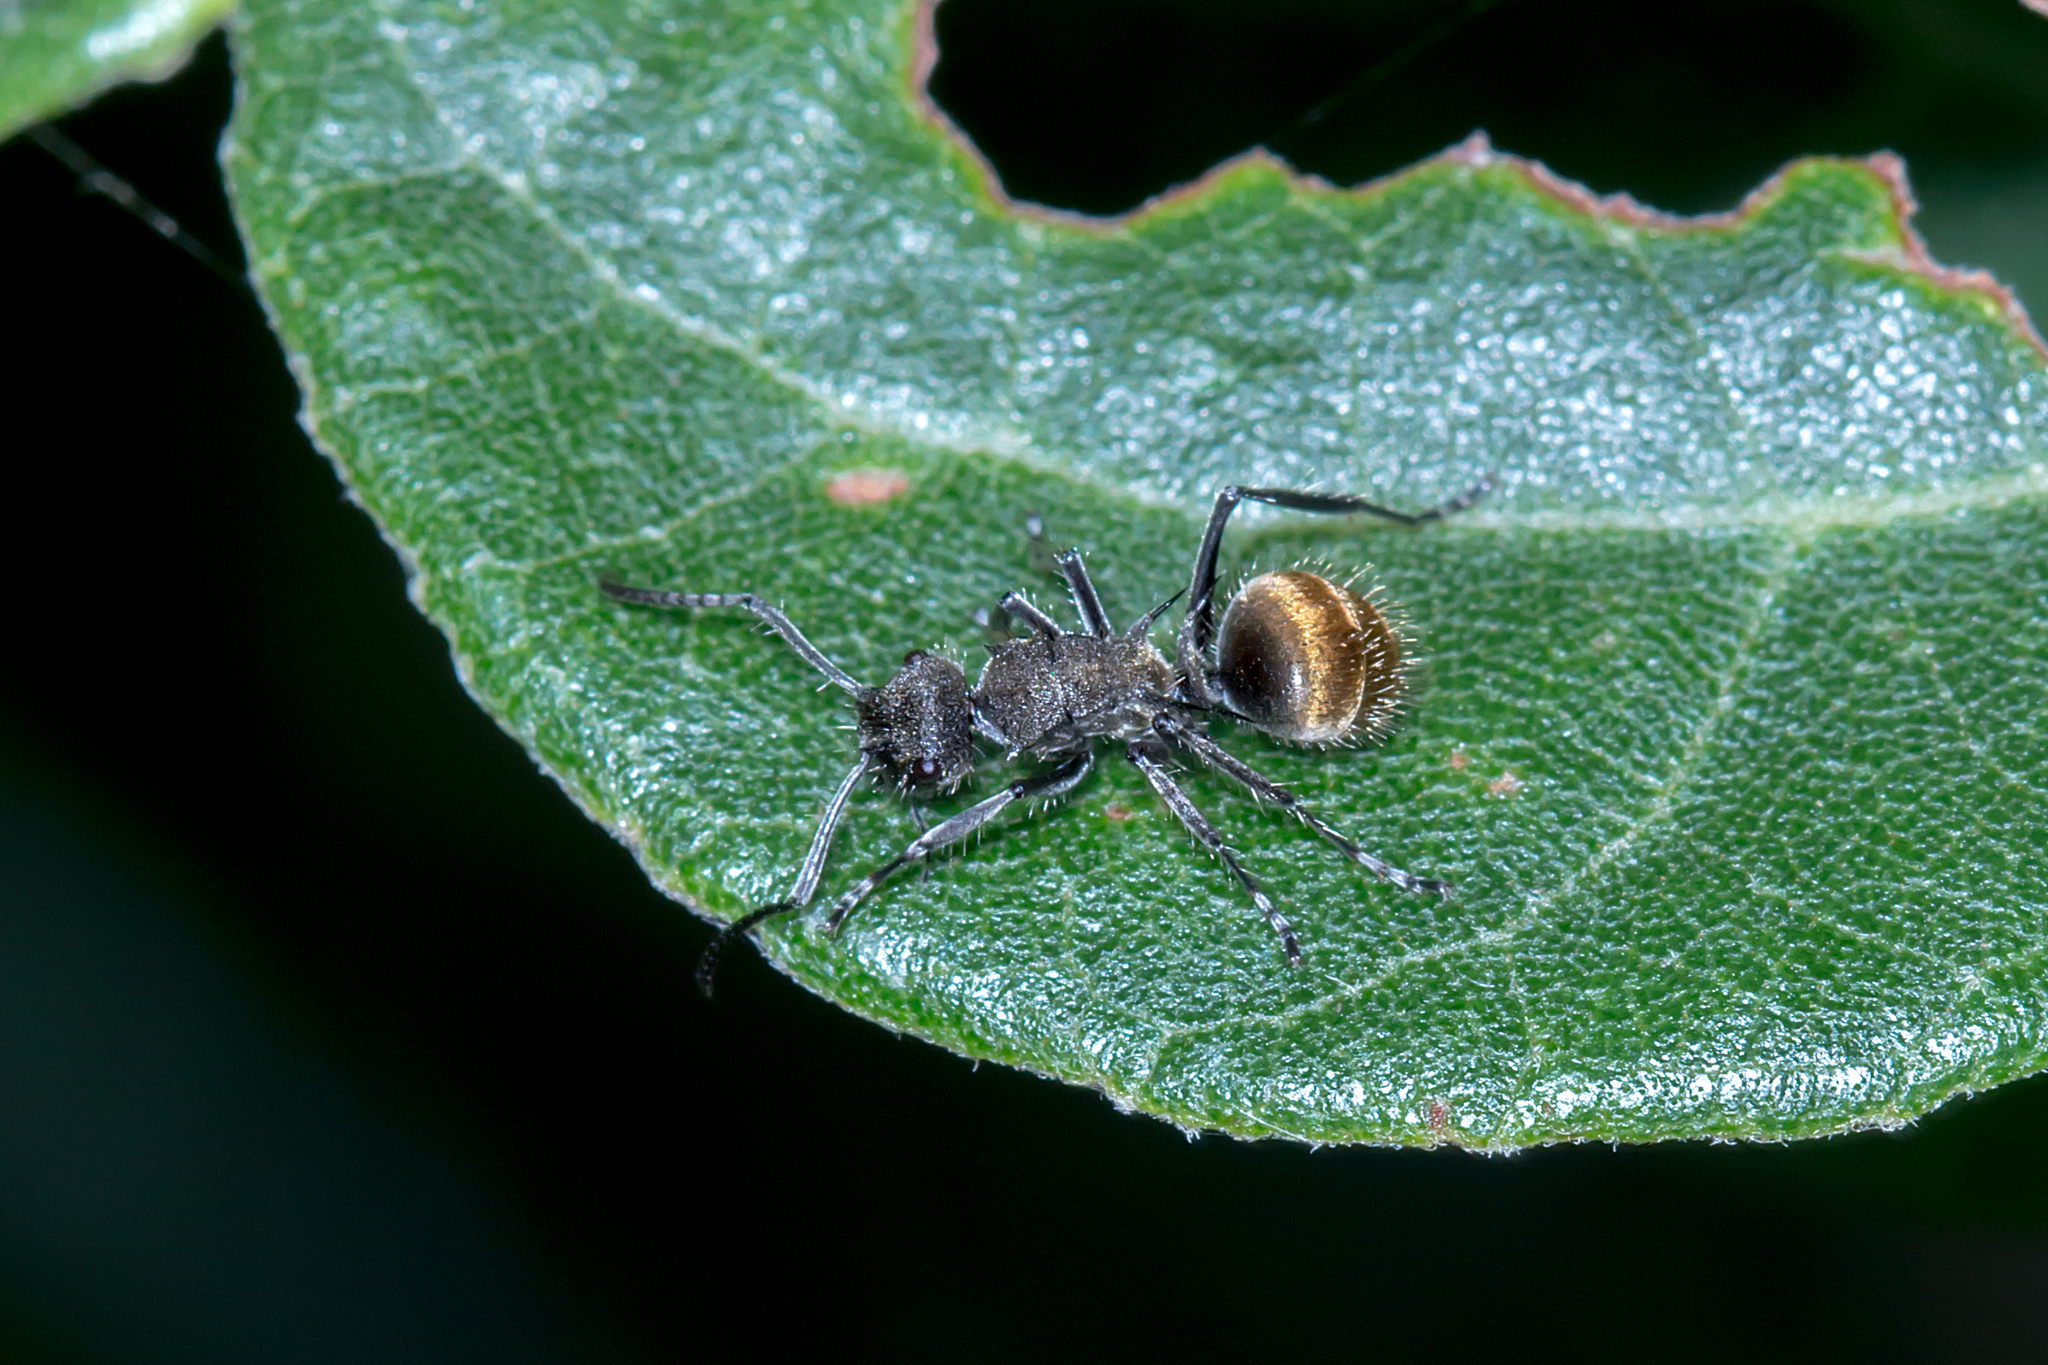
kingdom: Animalia
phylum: Arthropoda
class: Insecta
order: Hymenoptera
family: Formicidae
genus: Polyrhachis
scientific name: Polyrhachis aurea
